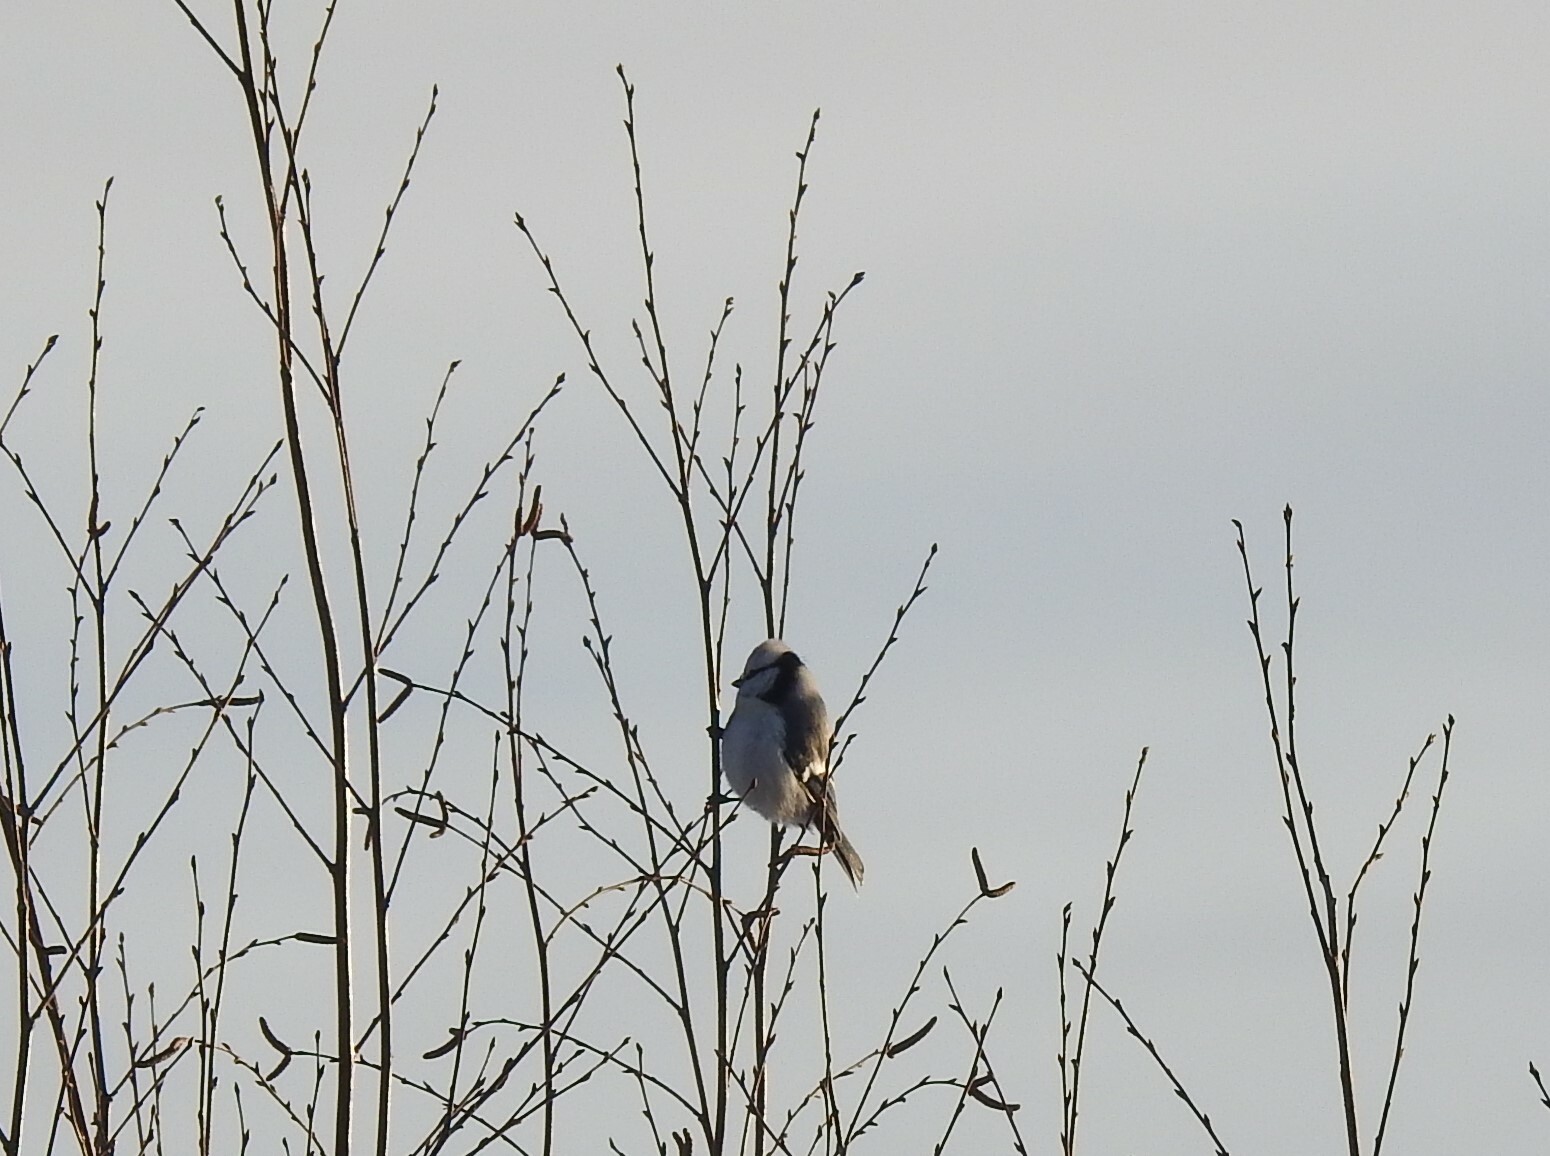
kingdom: Animalia
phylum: Chordata
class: Aves
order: Passeriformes
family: Paridae
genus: Cyanistes
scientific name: Cyanistes cyanus
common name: Azure tit
